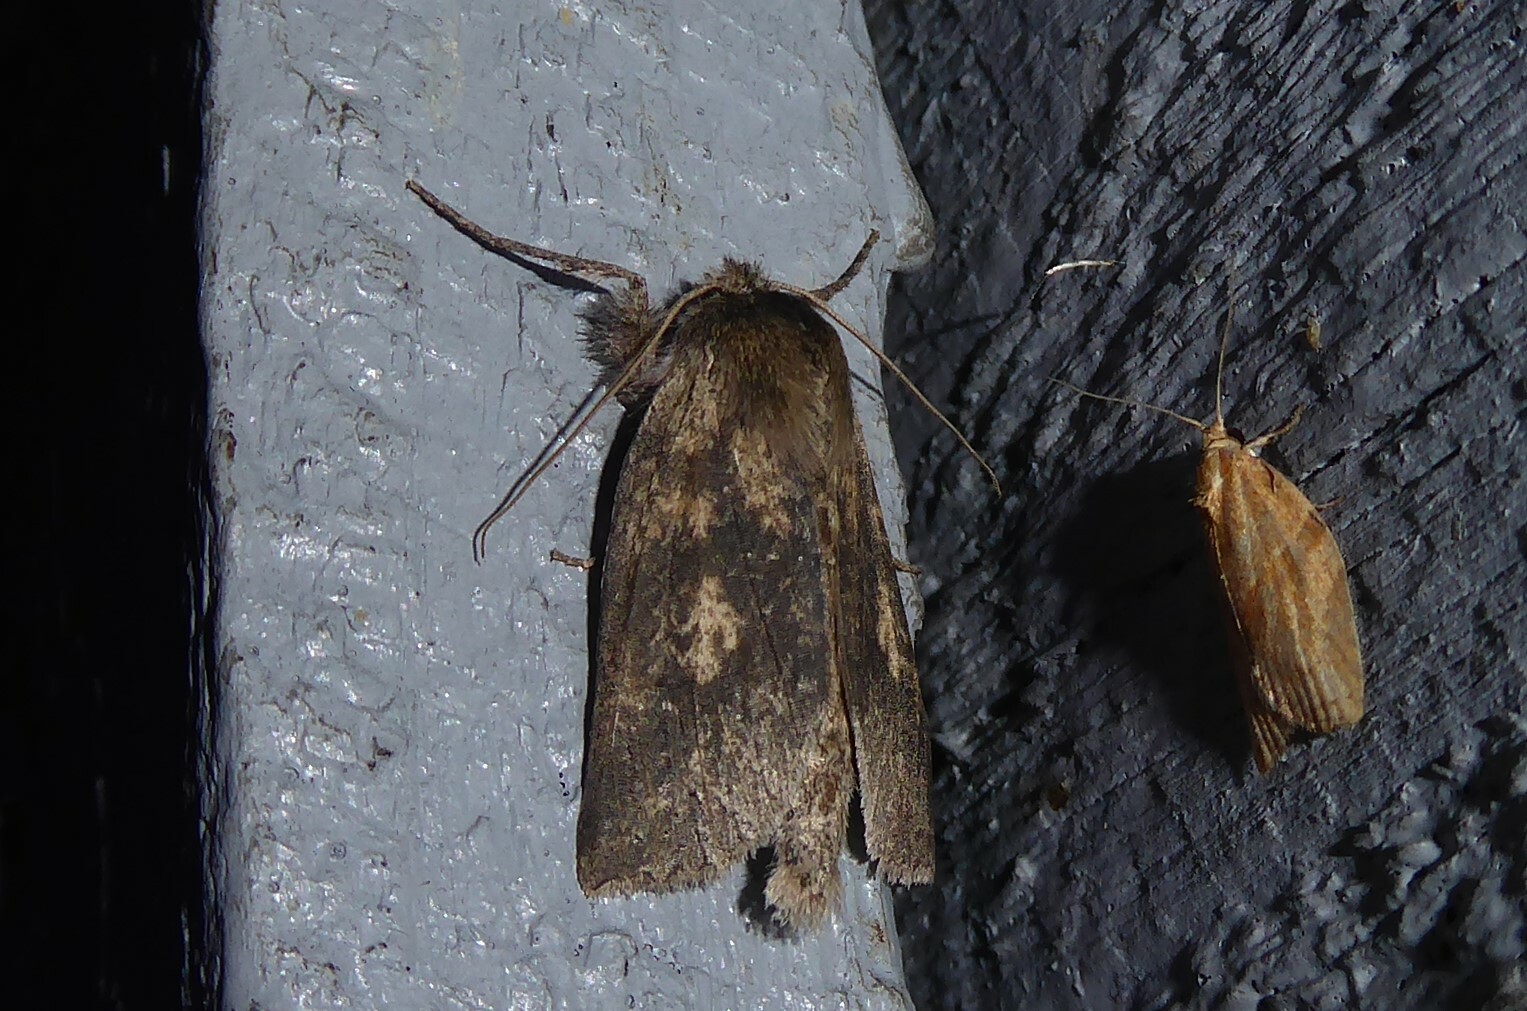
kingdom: Animalia
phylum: Arthropoda
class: Insecta
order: Lepidoptera
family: Geometridae
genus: Declana
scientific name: Declana leptomera
